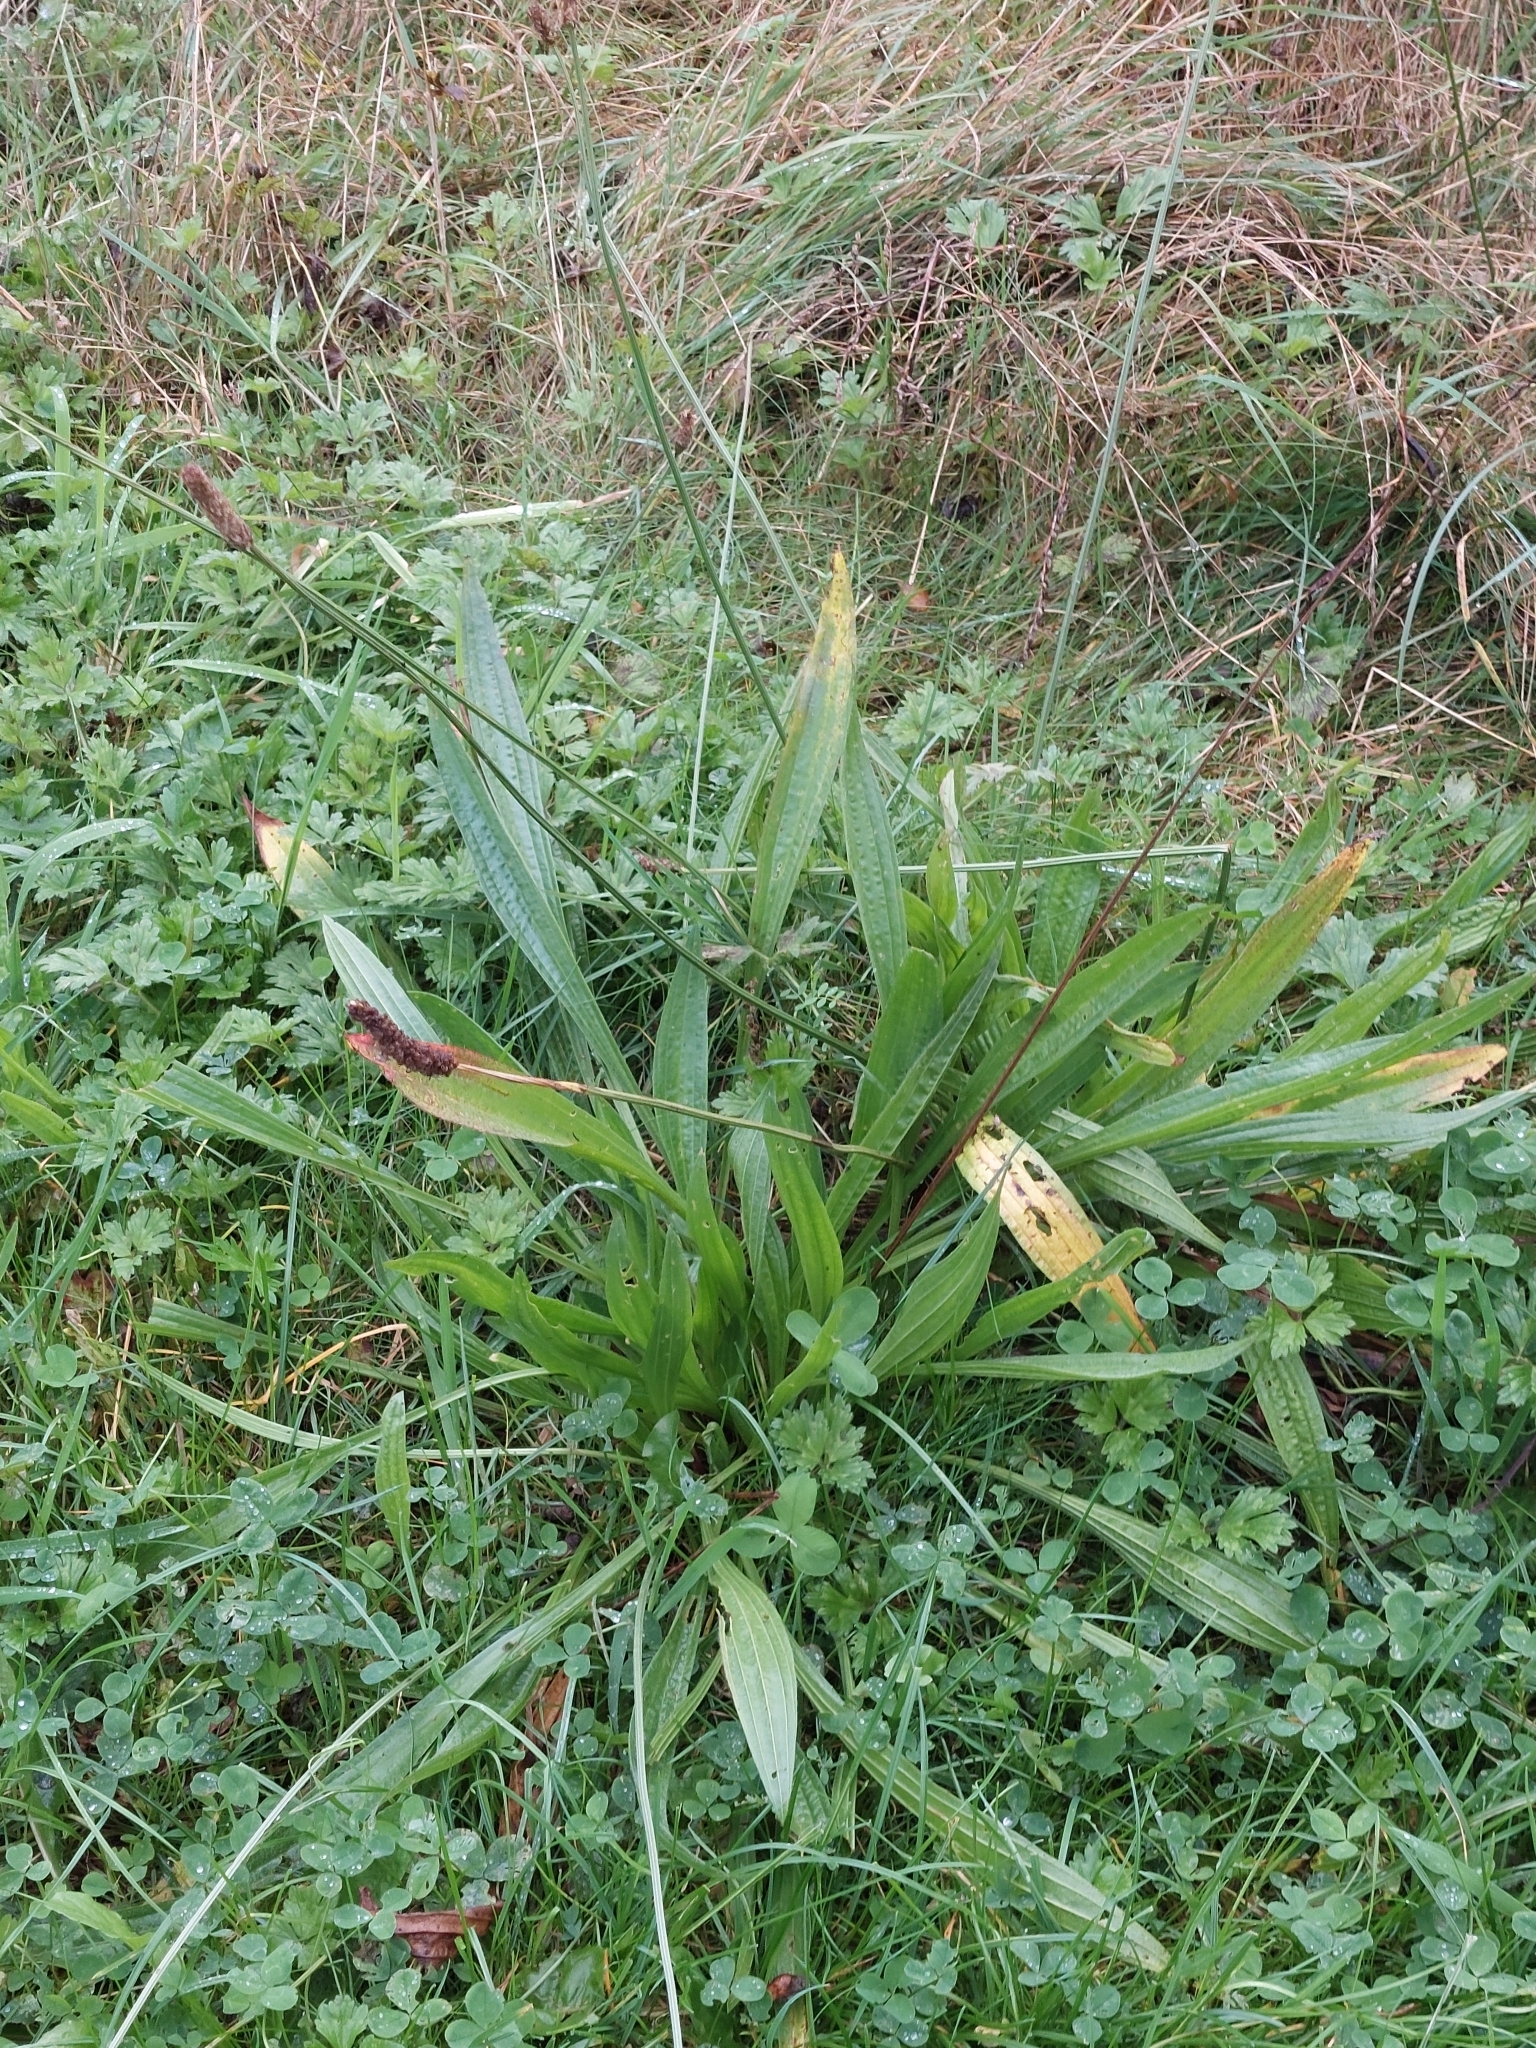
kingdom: Plantae
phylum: Tracheophyta
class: Magnoliopsida
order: Lamiales
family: Plantaginaceae
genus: Plantago
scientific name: Plantago lanceolata
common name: Ribwort plantain
